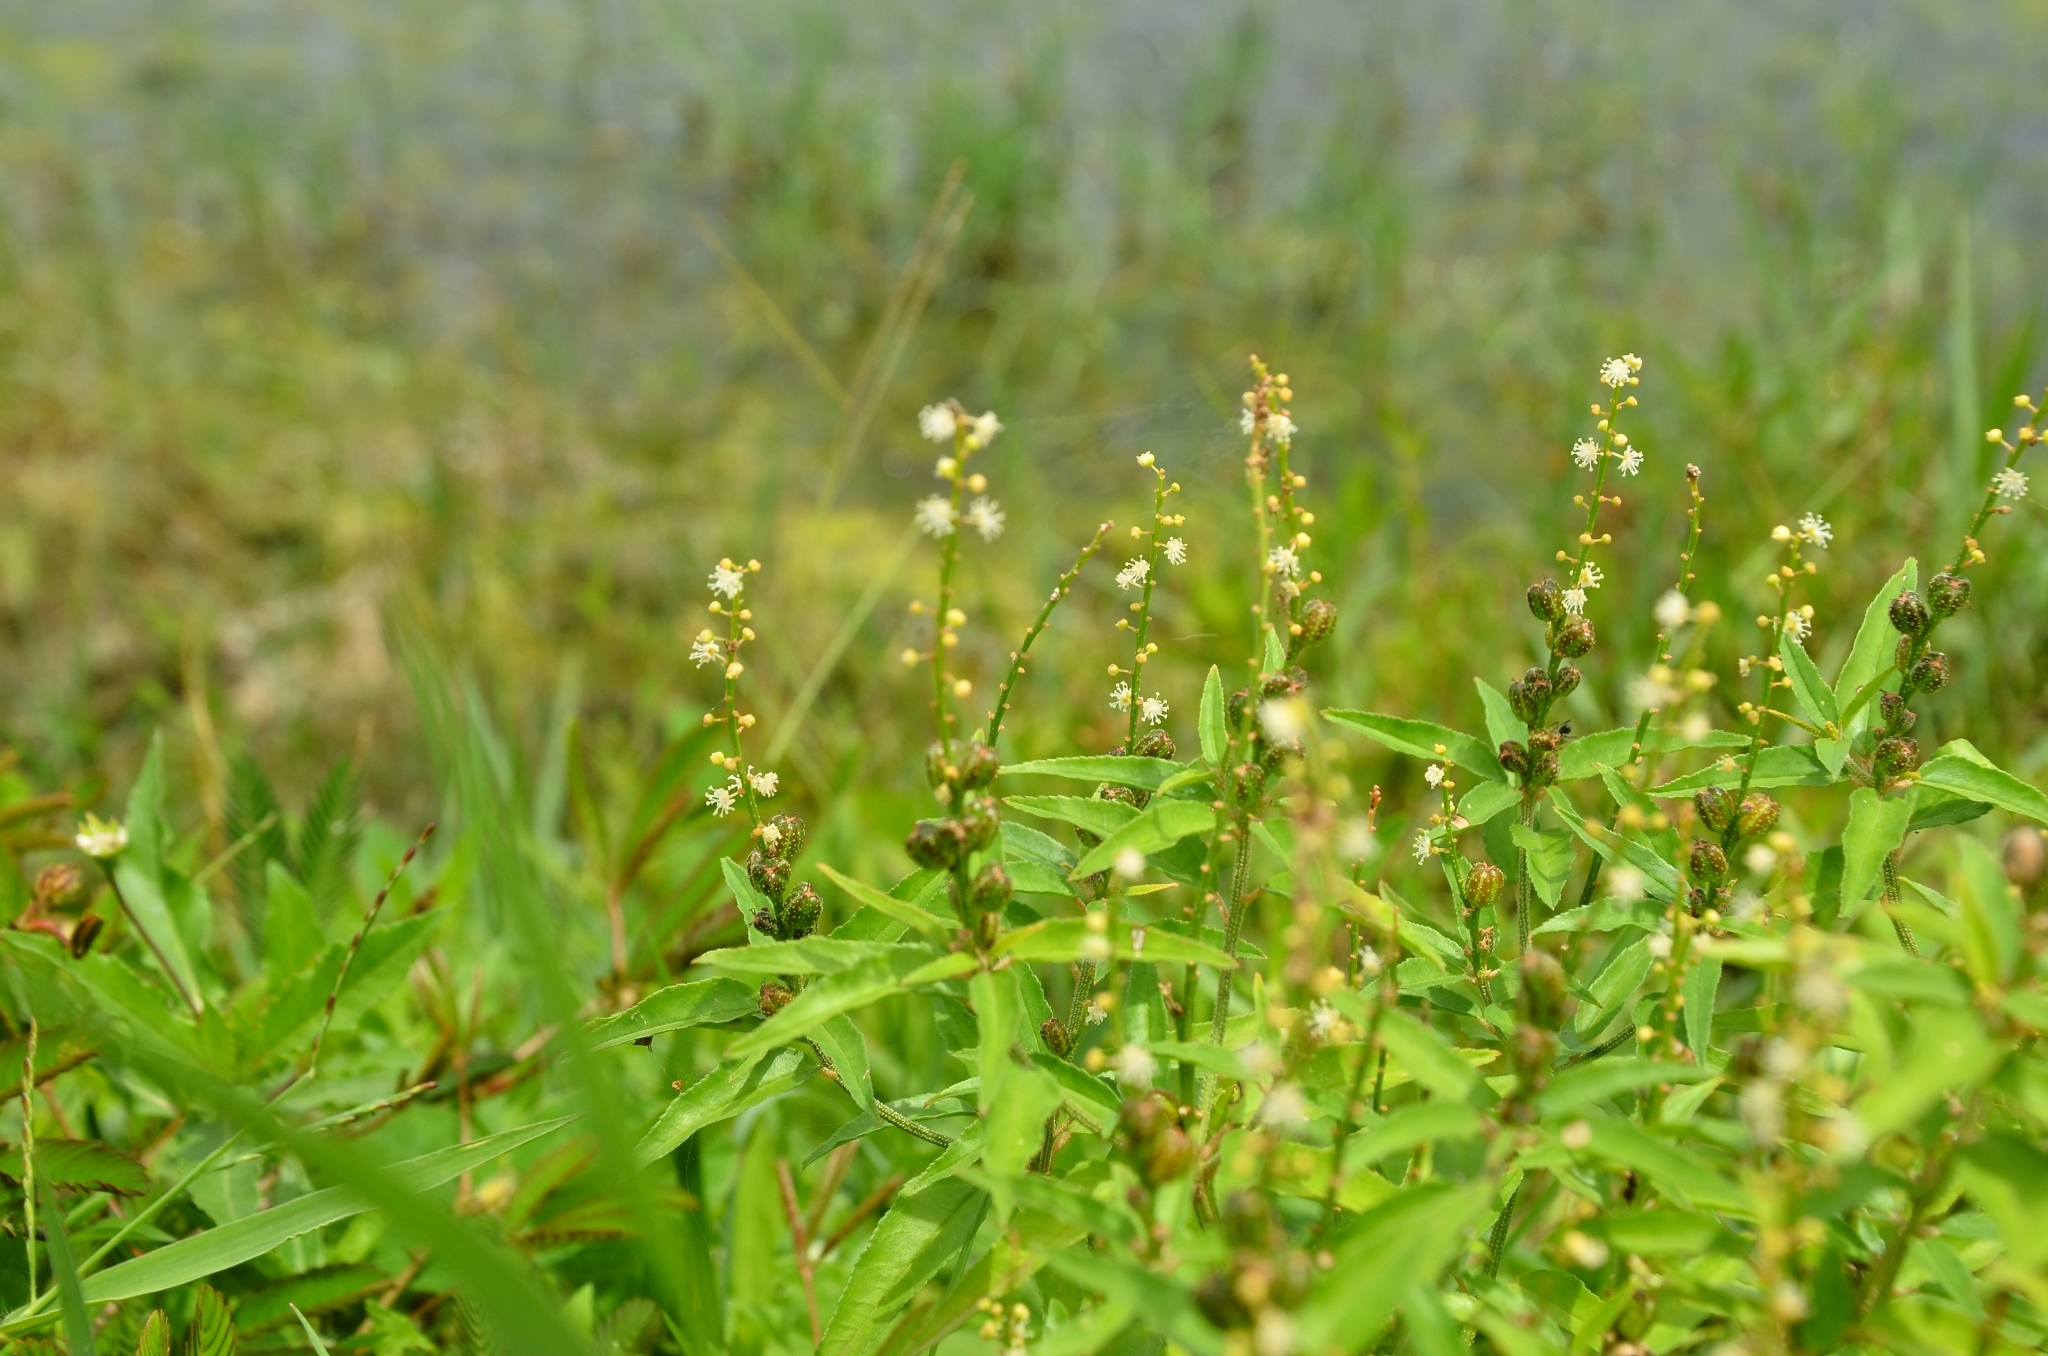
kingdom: Plantae
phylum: Tracheophyta
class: Magnoliopsida
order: Malpighiales
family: Euphorbiaceae
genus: Croton
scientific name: Croton bonplandianus
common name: Bonpland's croton
